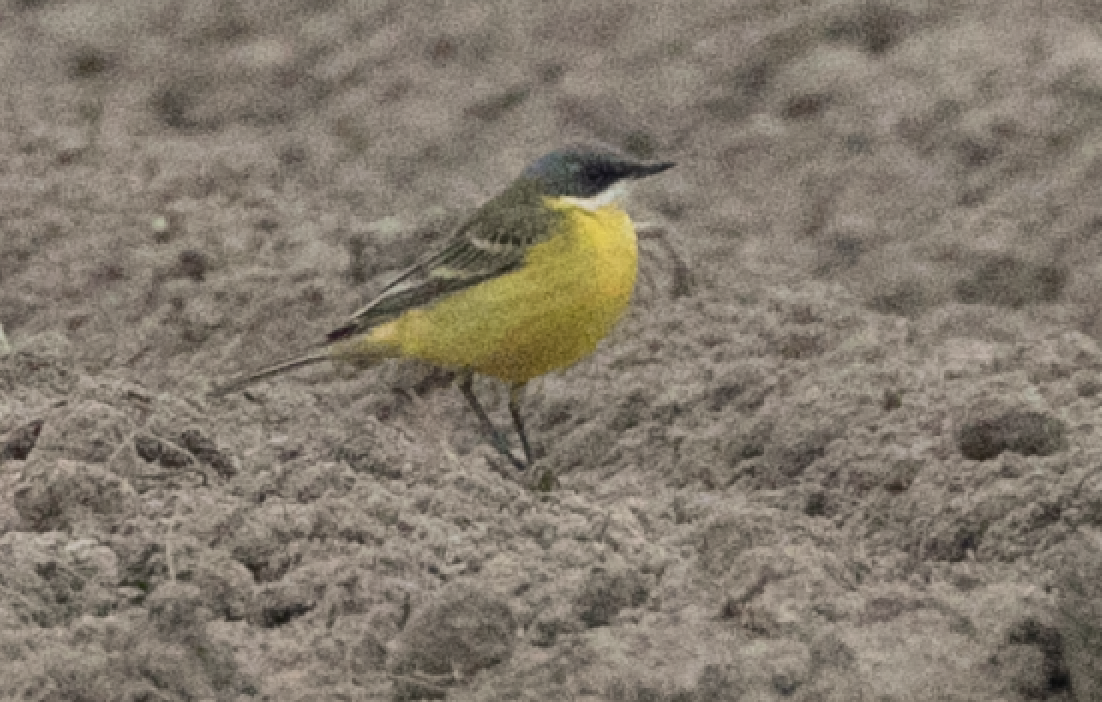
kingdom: Animalia
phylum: Chordata
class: Aves
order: Passeriformes
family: Motacillidae
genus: Motacilla
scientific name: Motacilla flava
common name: Western yellow wagtail
